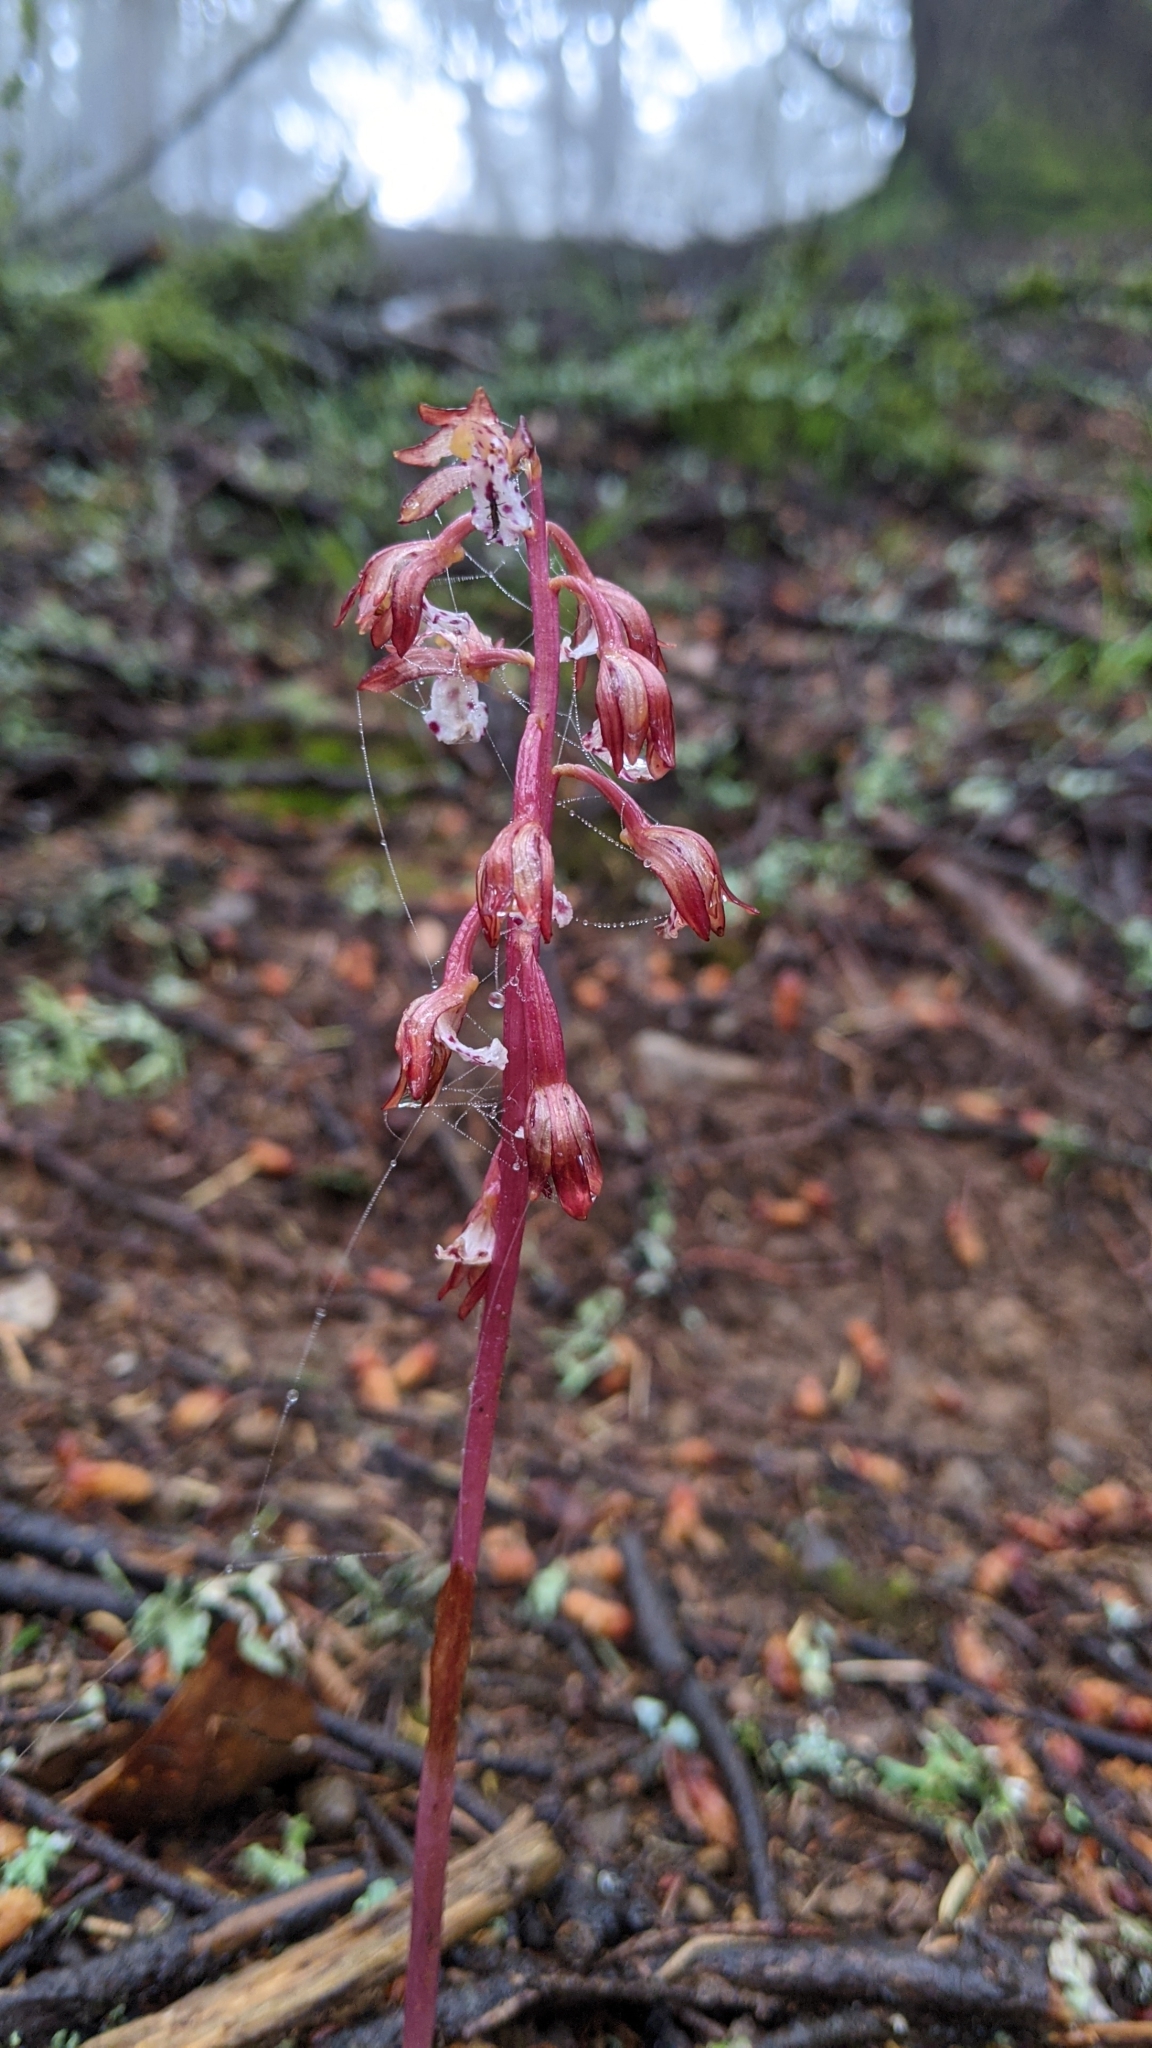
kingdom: Plantae
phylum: Tracheophyta
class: Liliopsida
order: Asparagales
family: Orchidaceae
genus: Corallorhiza
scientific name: Corallorhiza maculata
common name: Spotted coralroot
